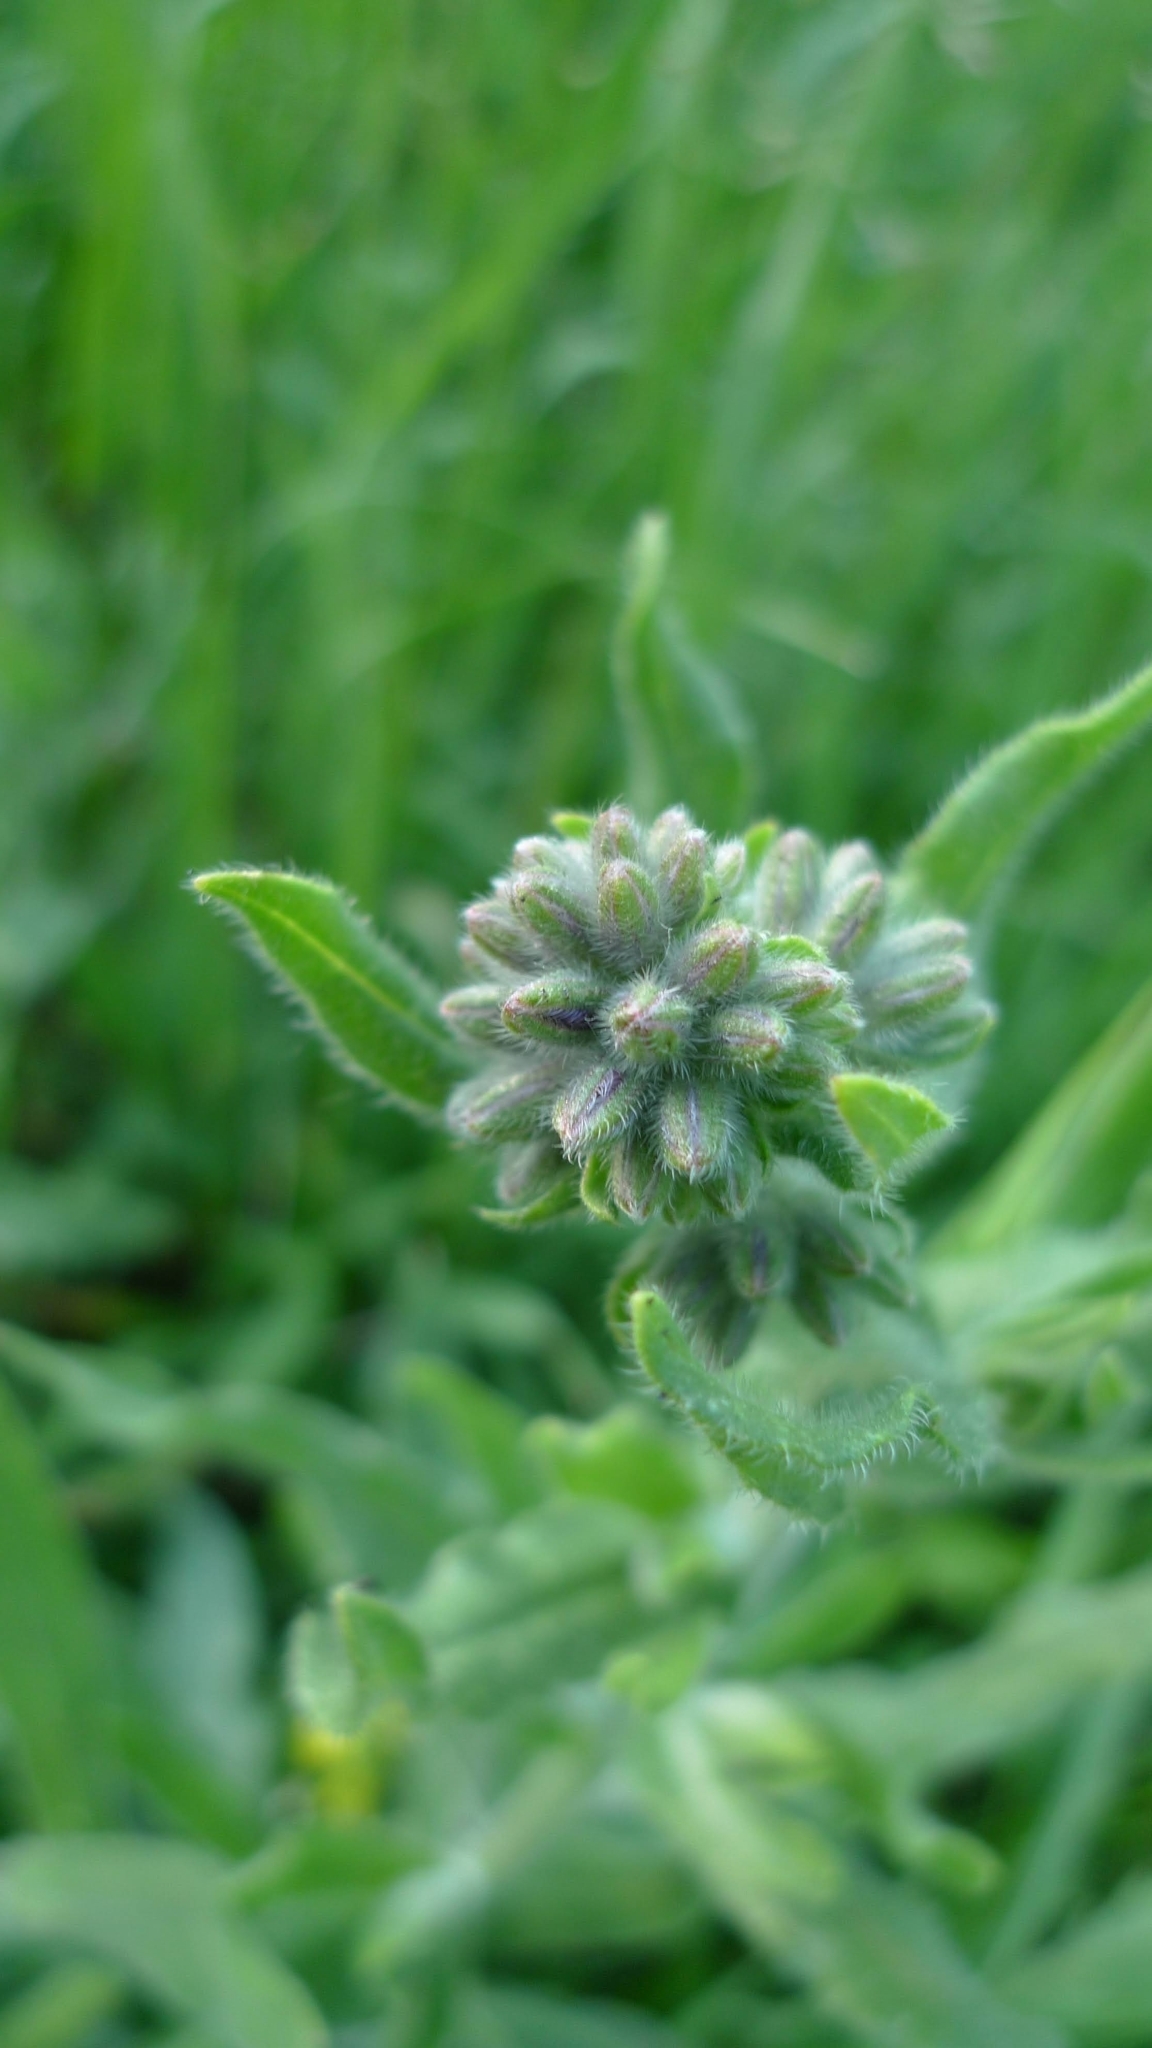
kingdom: Plantae
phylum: Tracheophyta
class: Magnoliopsida
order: Boraginales
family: Boraginaceae
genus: Anchusa
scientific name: Anchusa officinalis
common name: Alkanet
